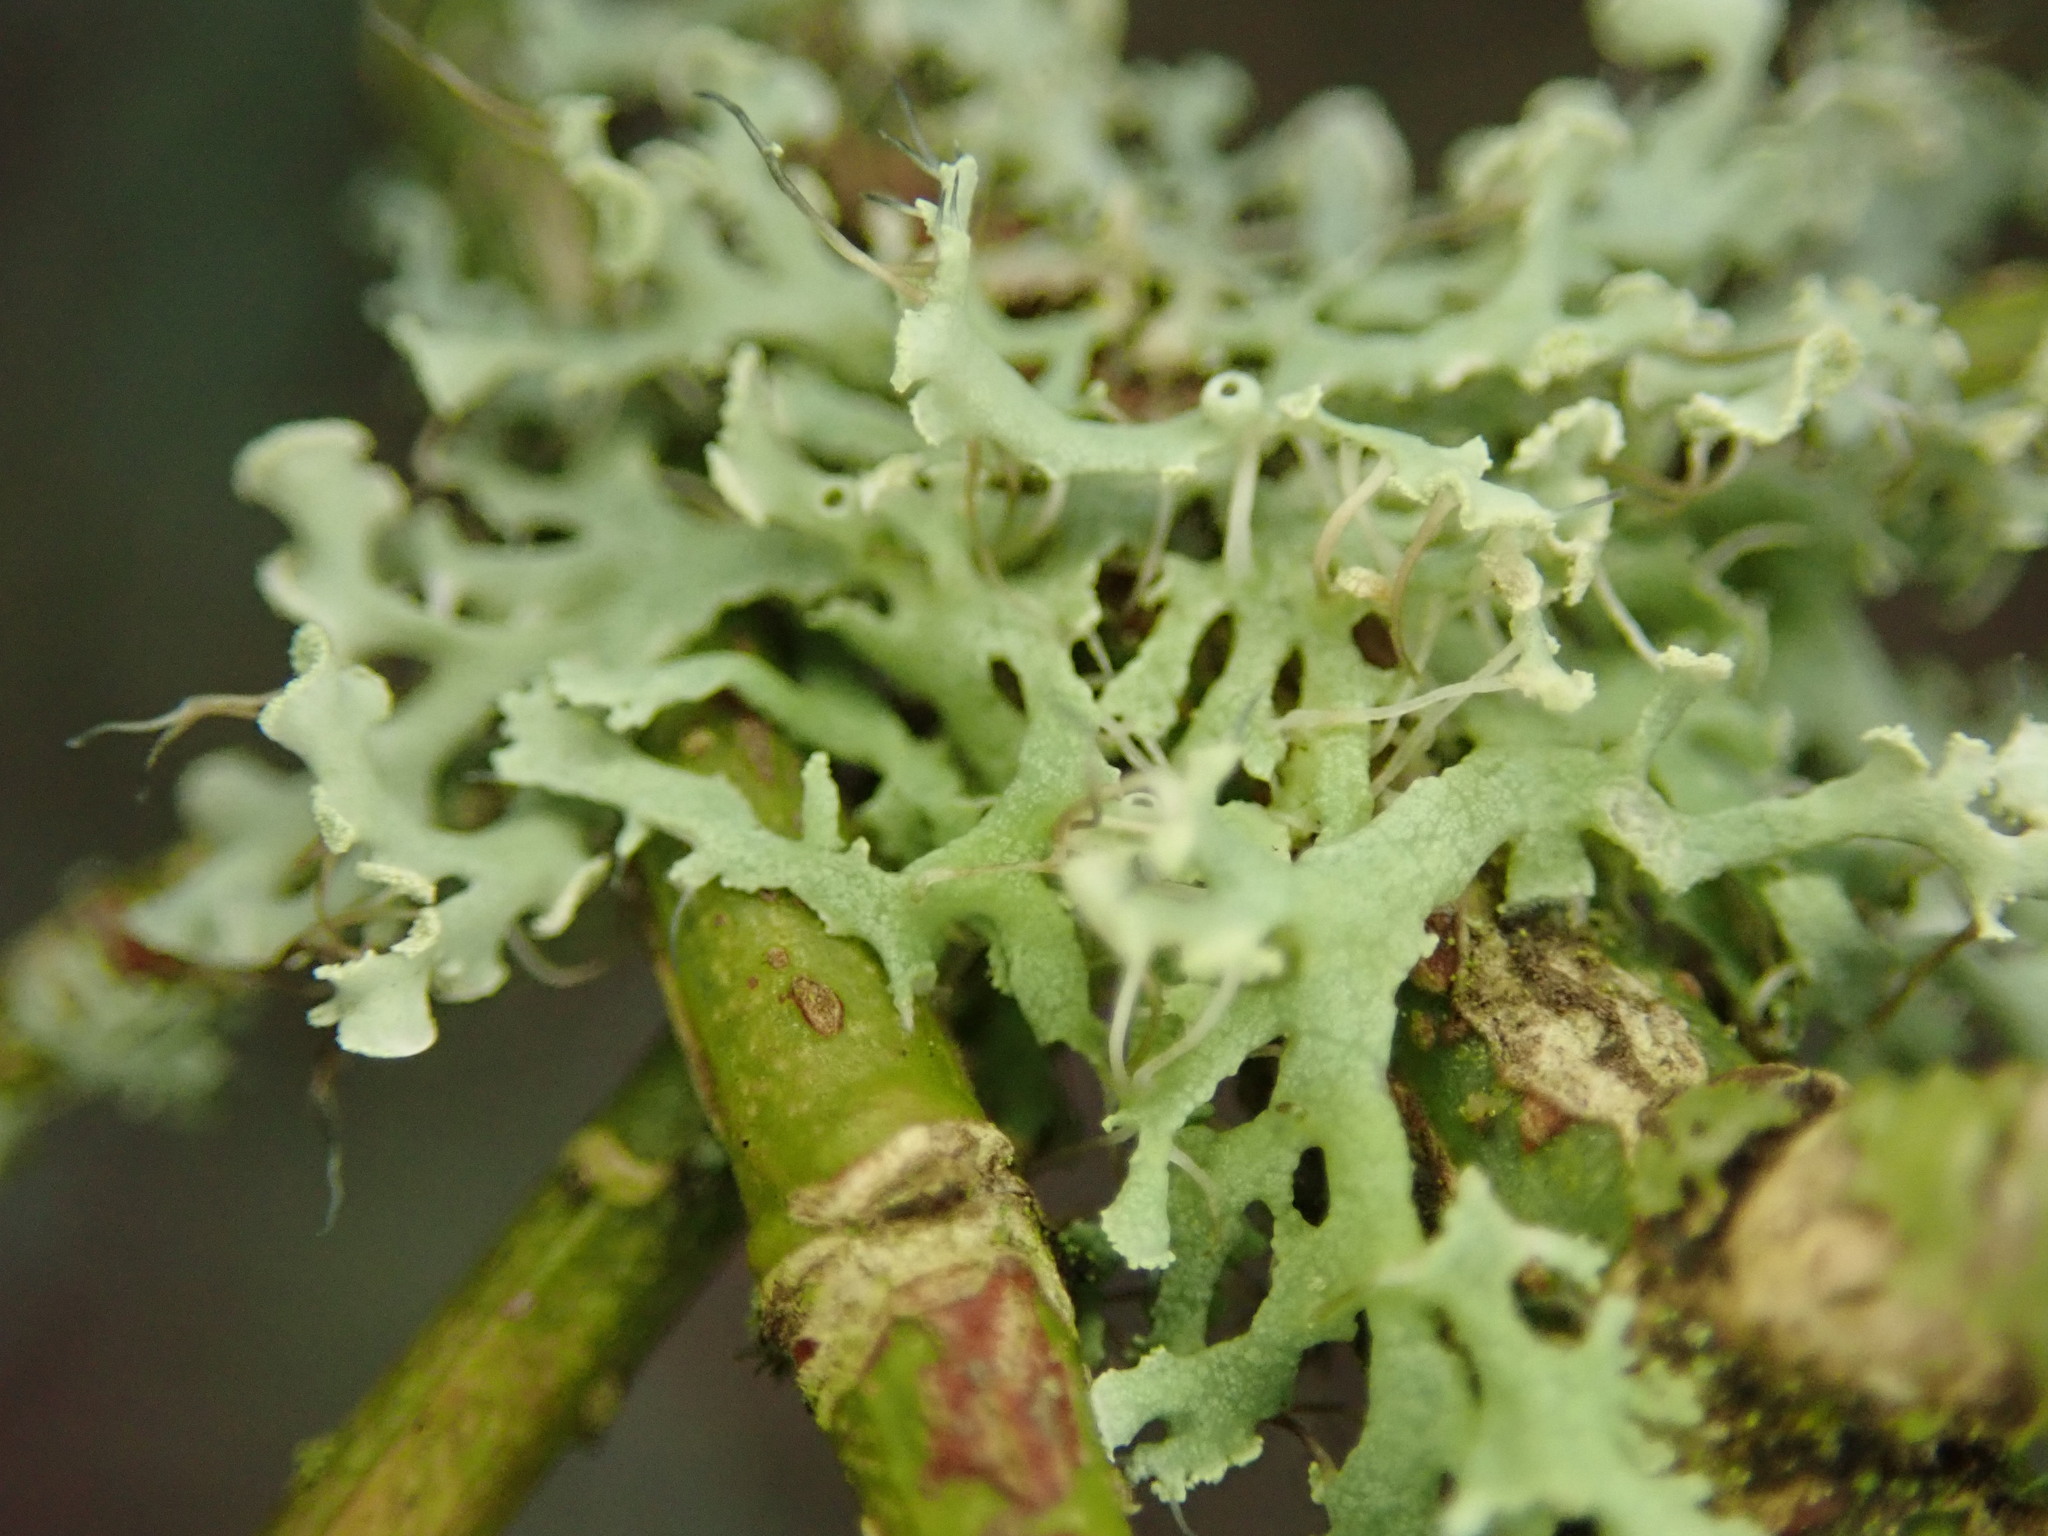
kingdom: Fungi
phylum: Ascomycota
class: Lecanoromycetes
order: Caliciales
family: Physciaceae
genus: Physcia
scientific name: Physcia tenella
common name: Fringed rosette lichen
